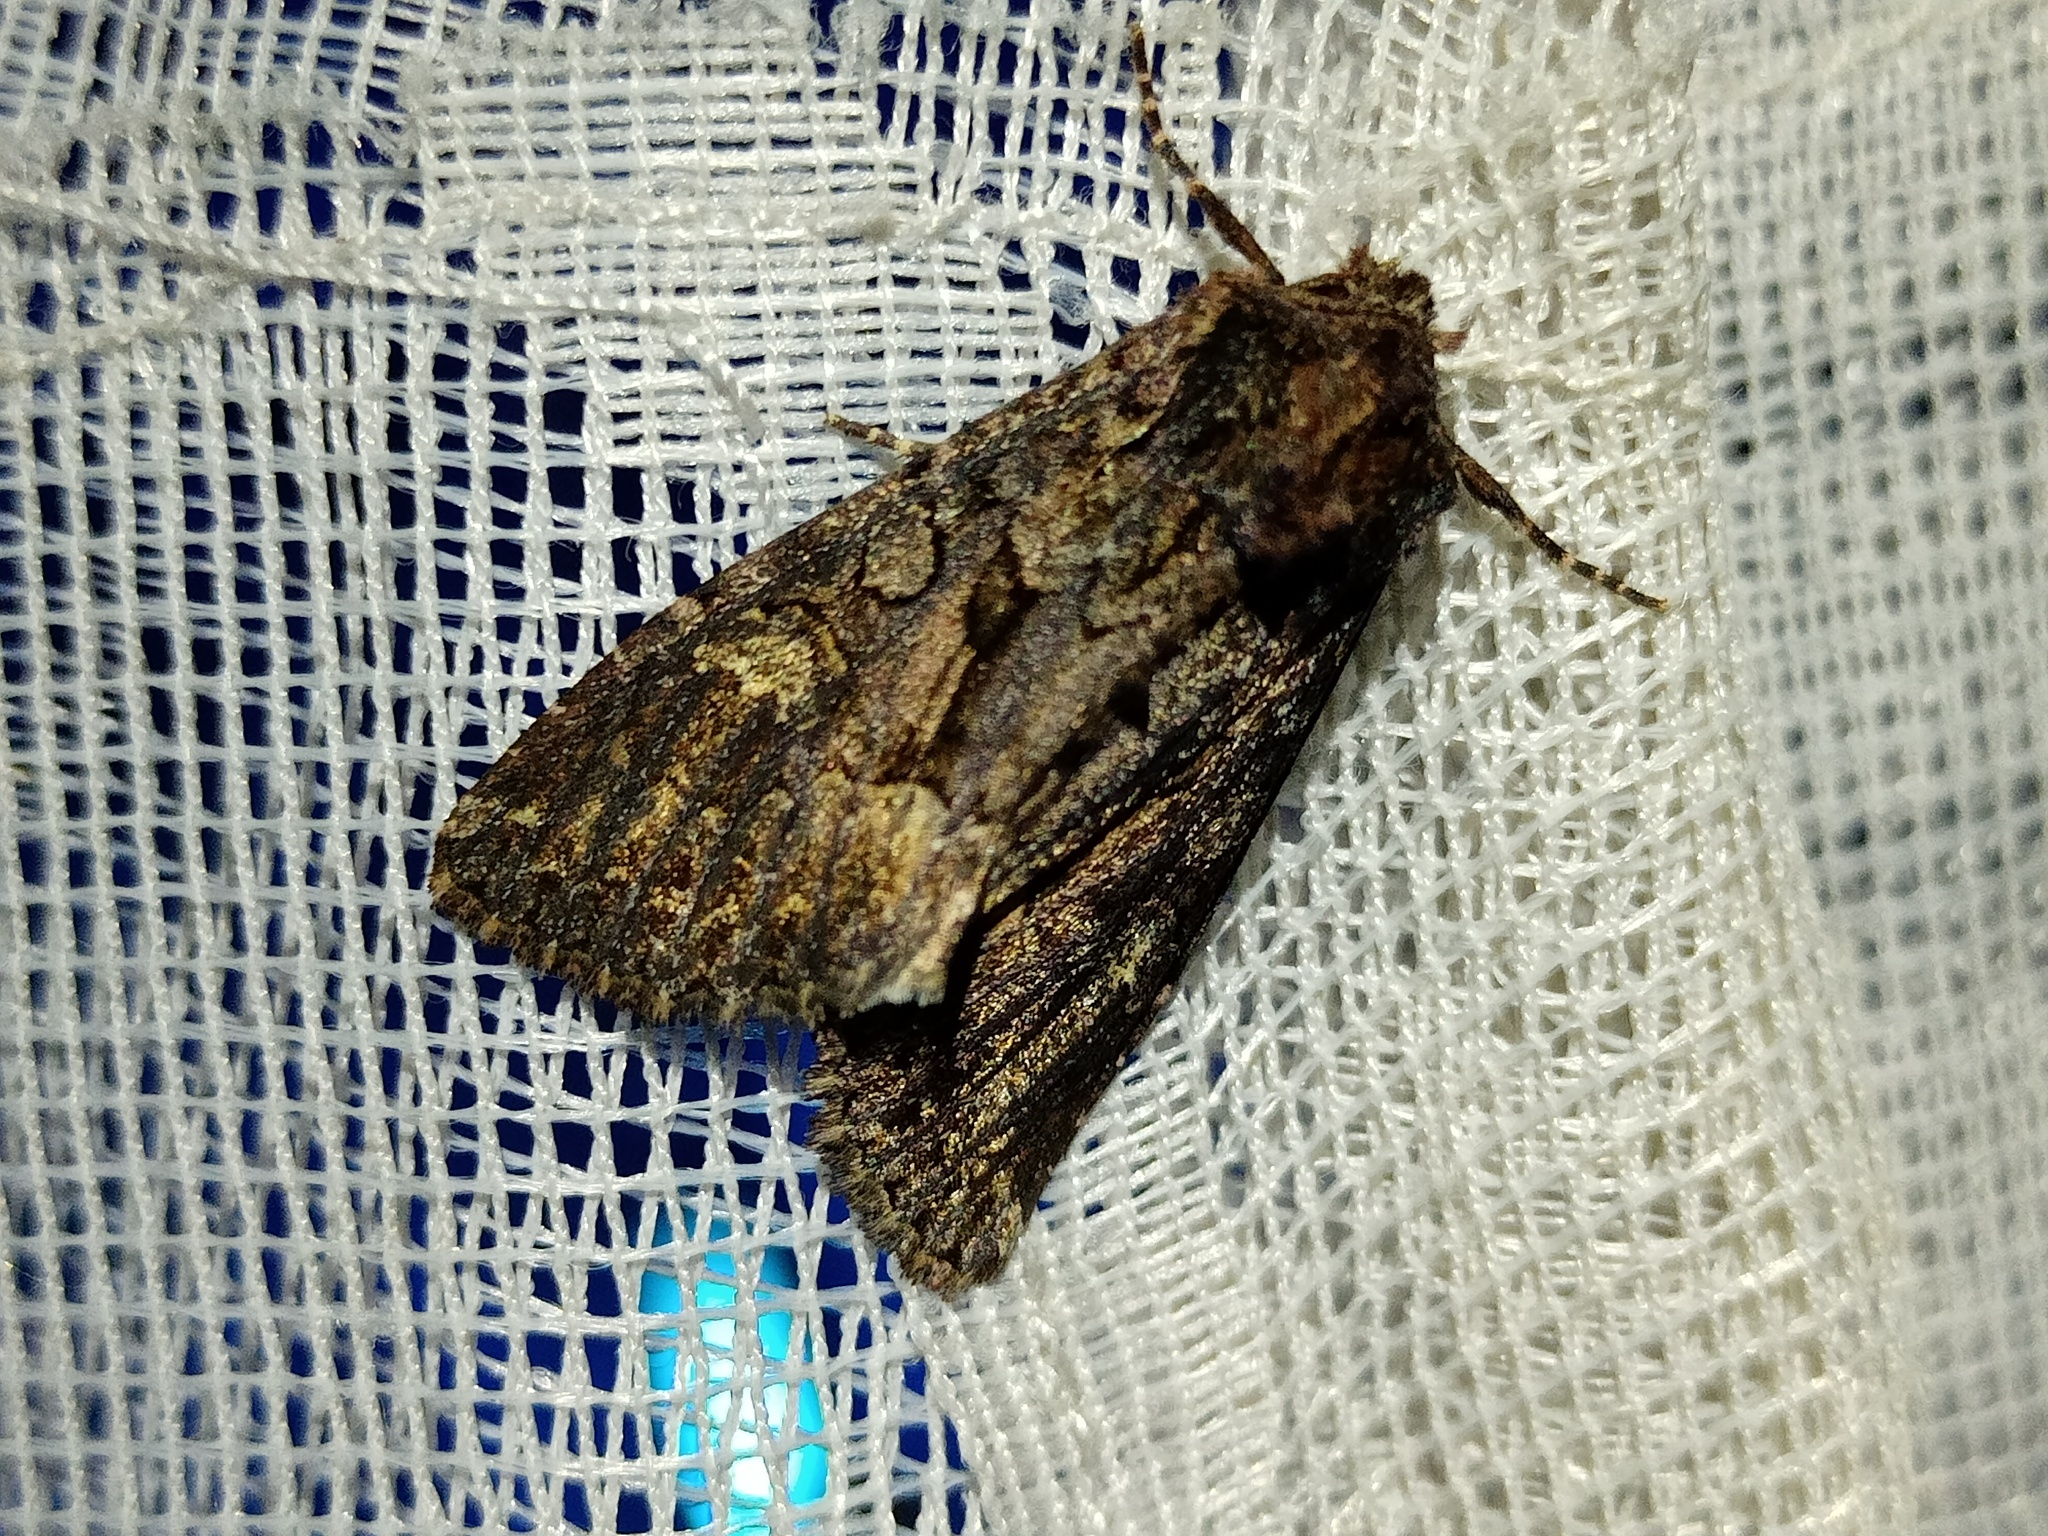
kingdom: Animalia
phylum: Arthropoda
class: Insecta
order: Lepidoptera
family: Noctuidae
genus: Mniotype
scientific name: Mniotype adusta
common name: Dark brocade
